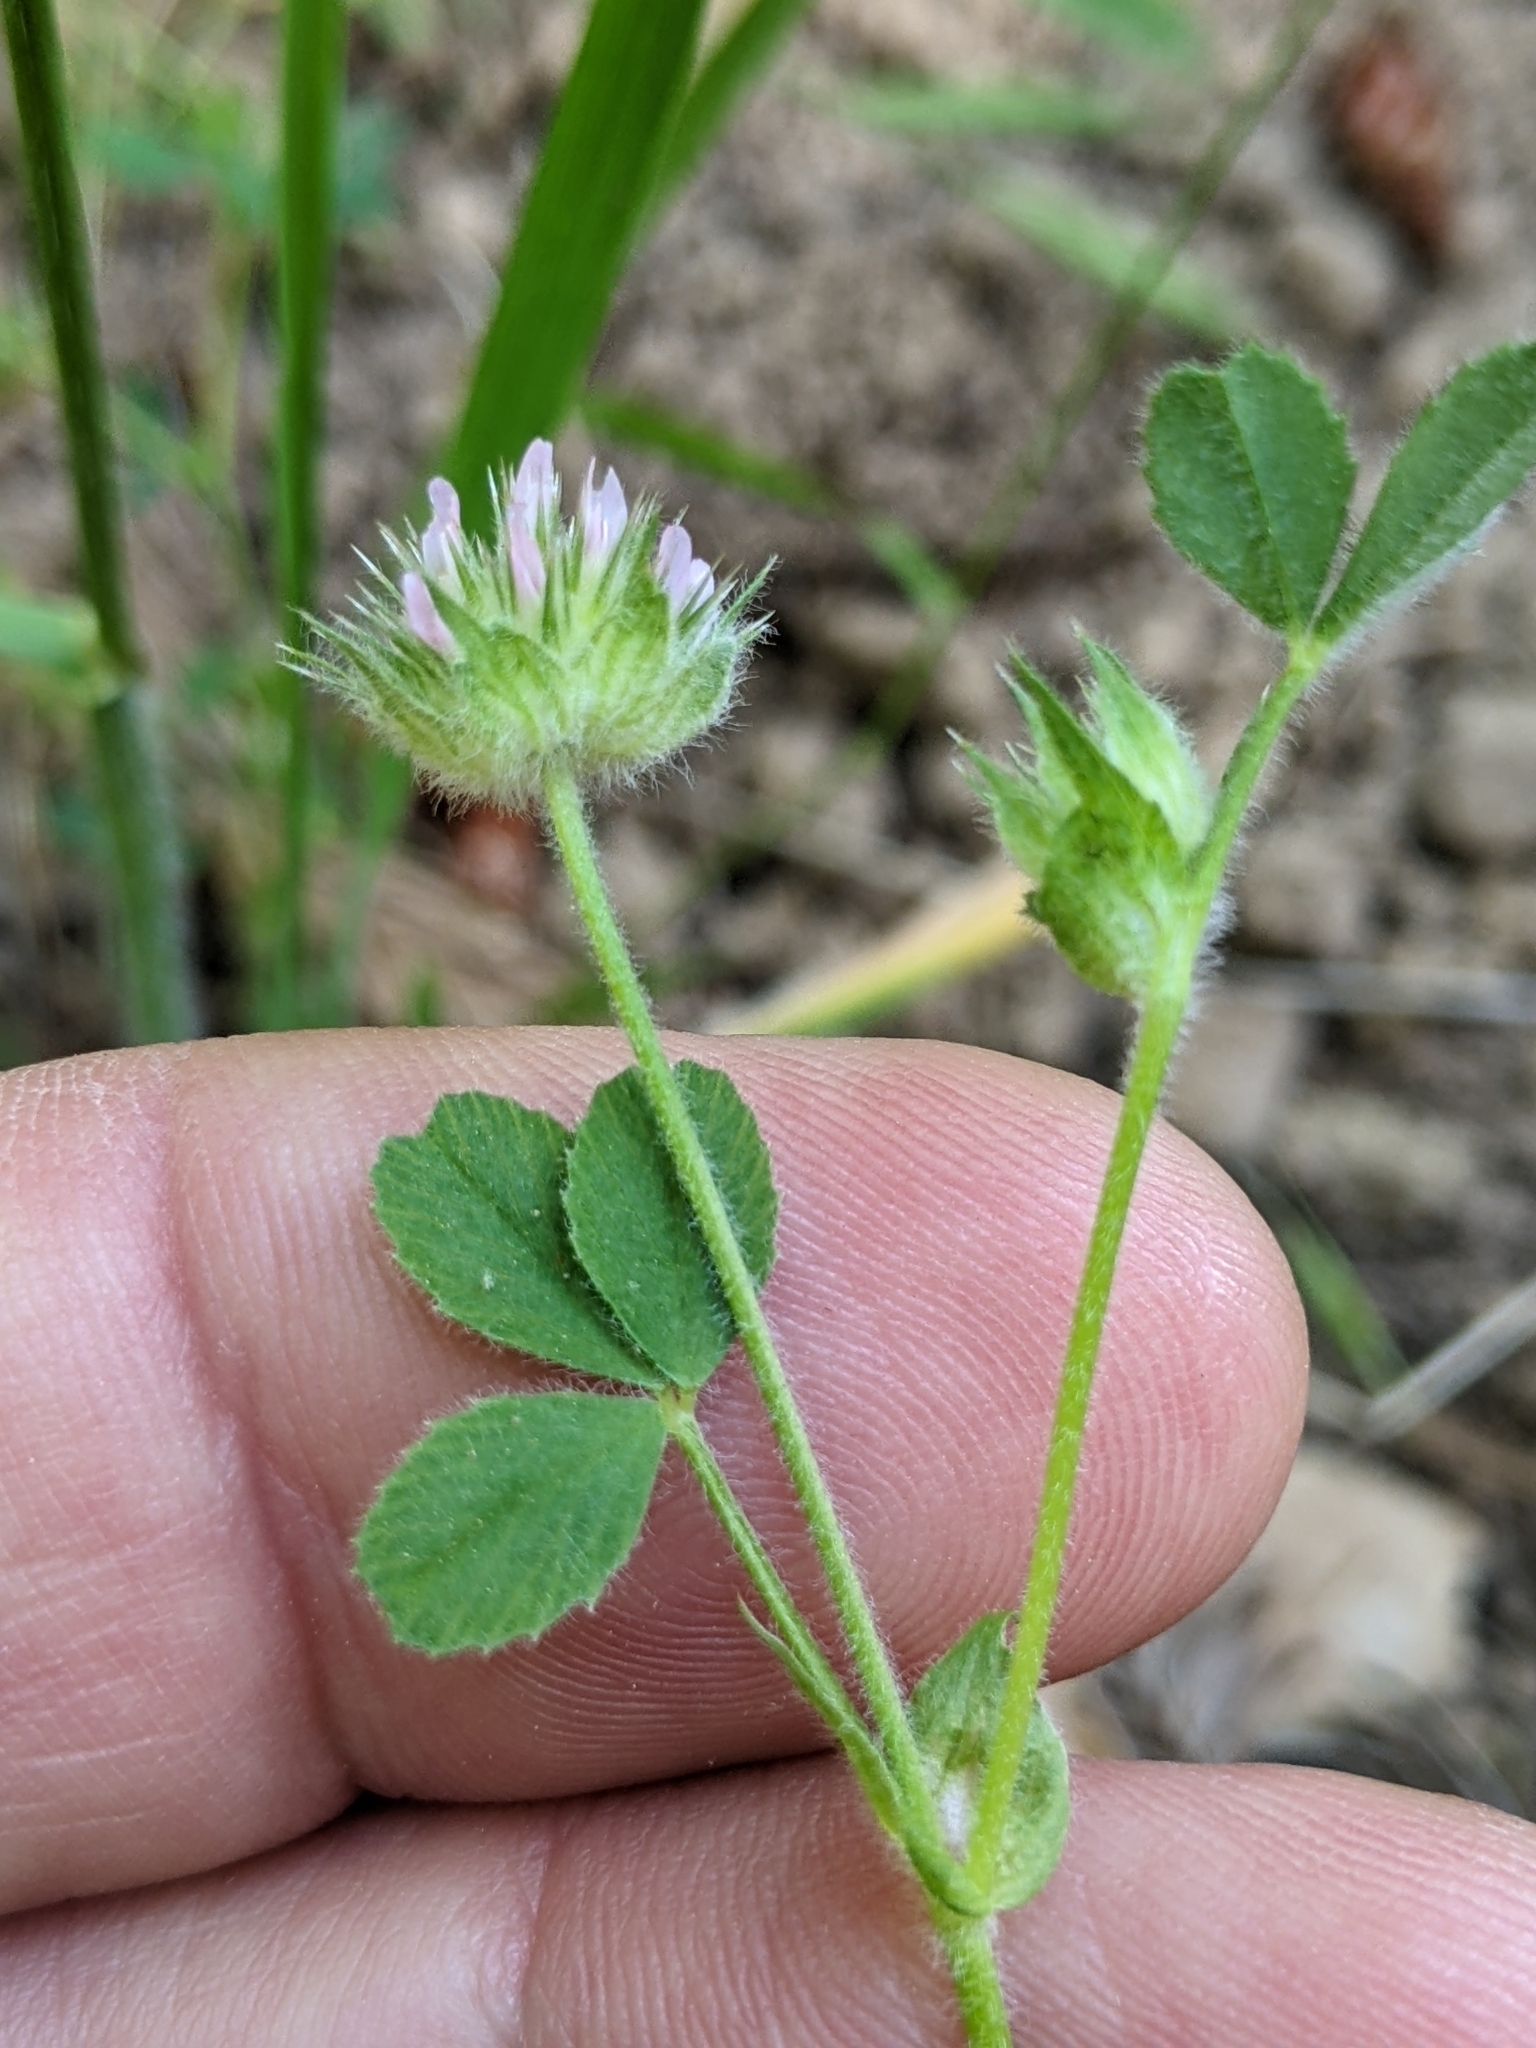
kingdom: Plantae
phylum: Tracheophyta
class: Magnoliopsida
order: Fabales
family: Fabaceae
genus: Trifolium
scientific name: Trifolium microcephalum
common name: Maiden clover
